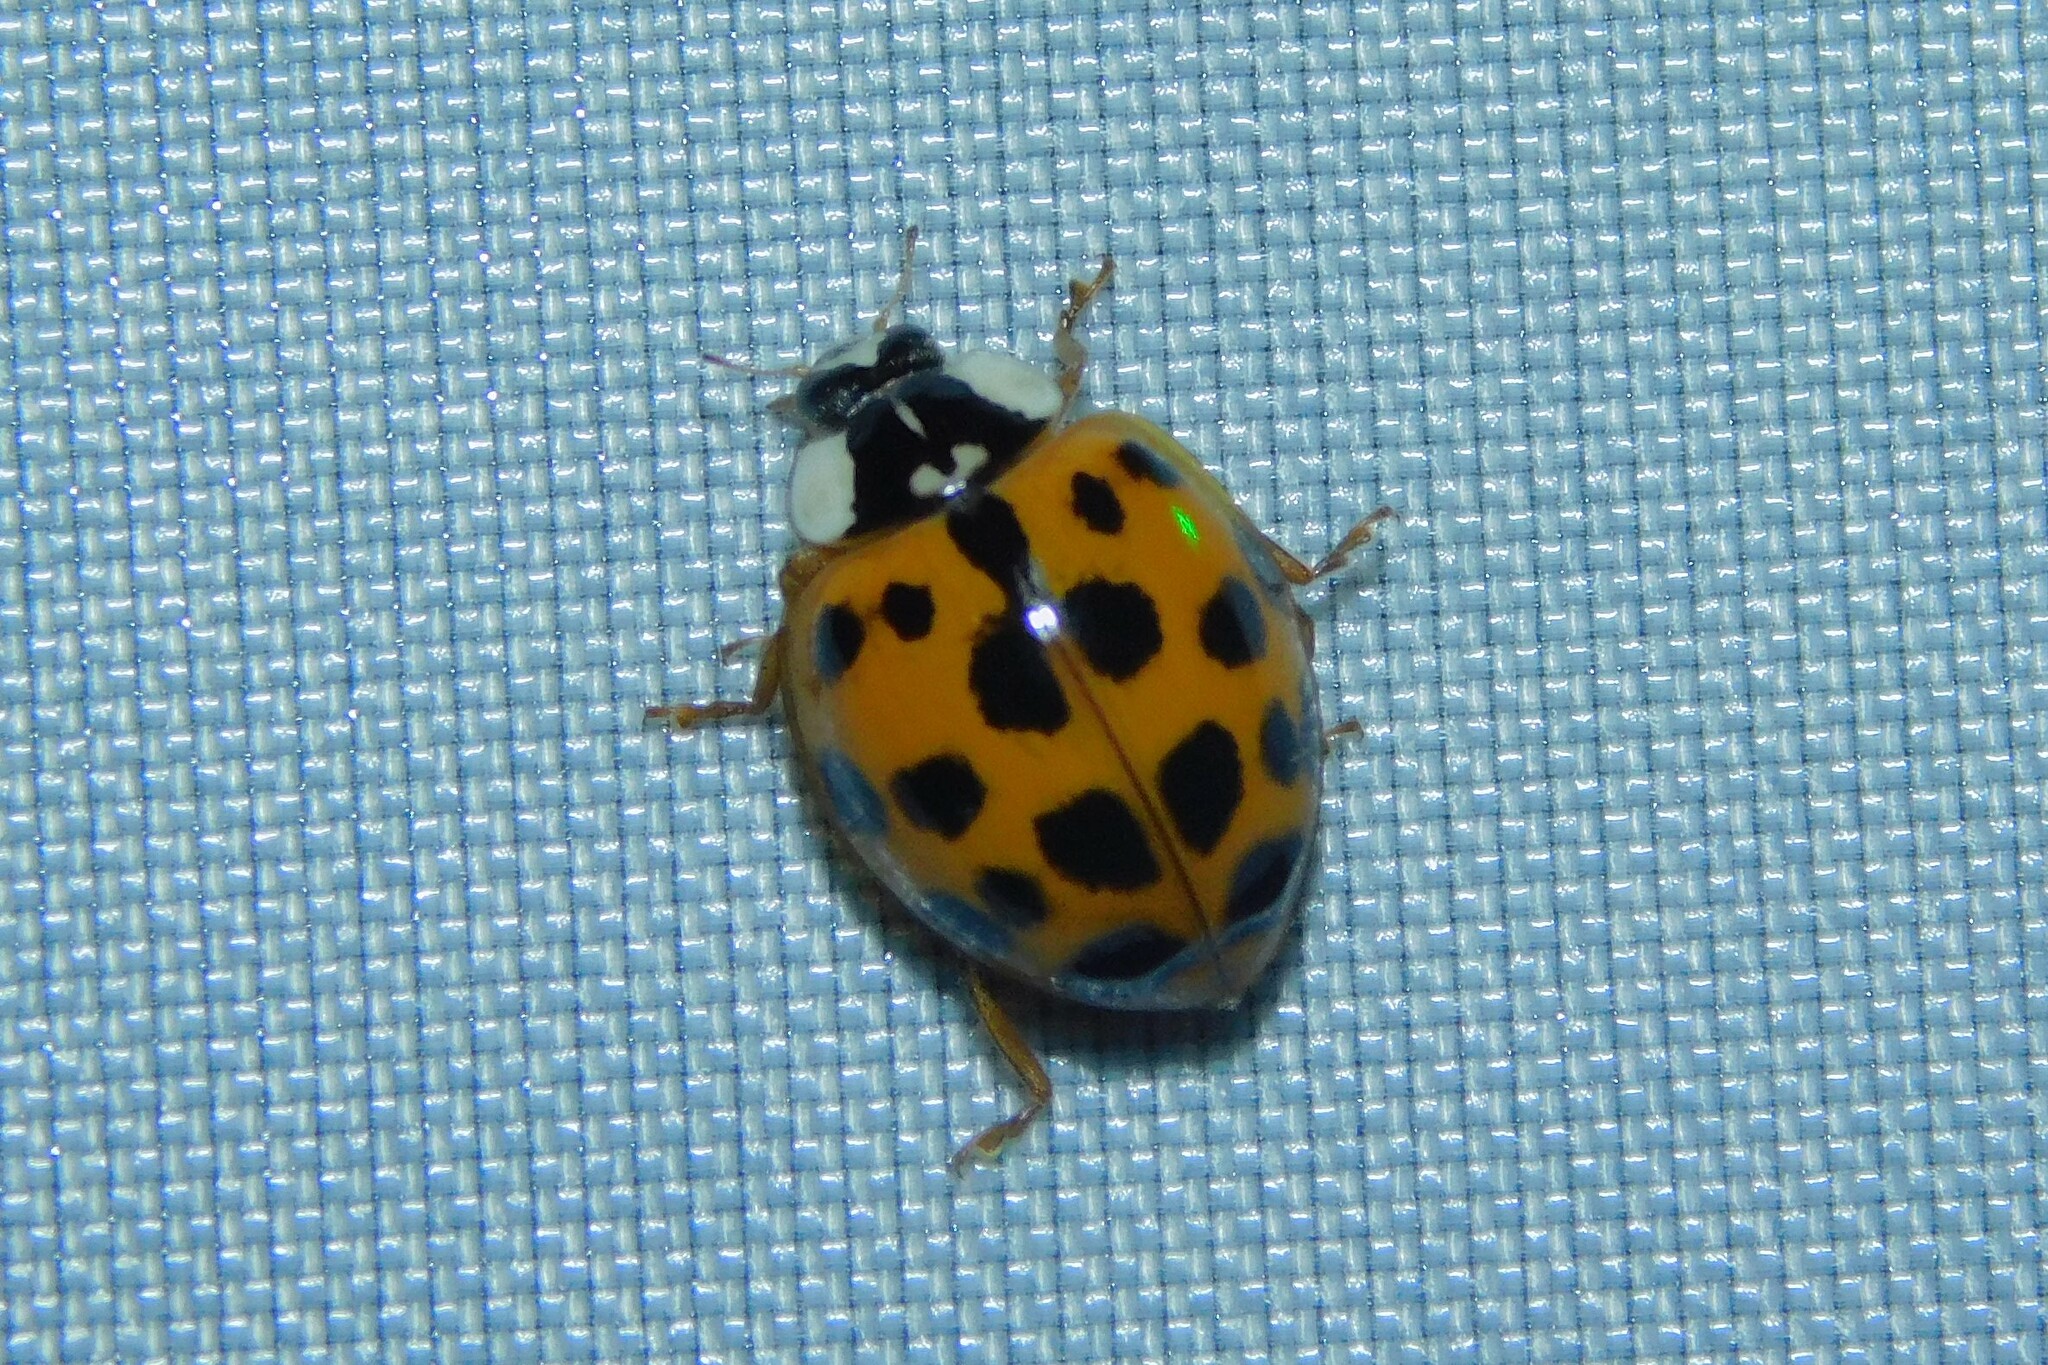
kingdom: Animalia
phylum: Arthropoda
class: Insecta
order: Coleoptera
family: Coccinellidae
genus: Harmonia
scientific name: Harmonia axyridis
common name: Harlequin ladybird
